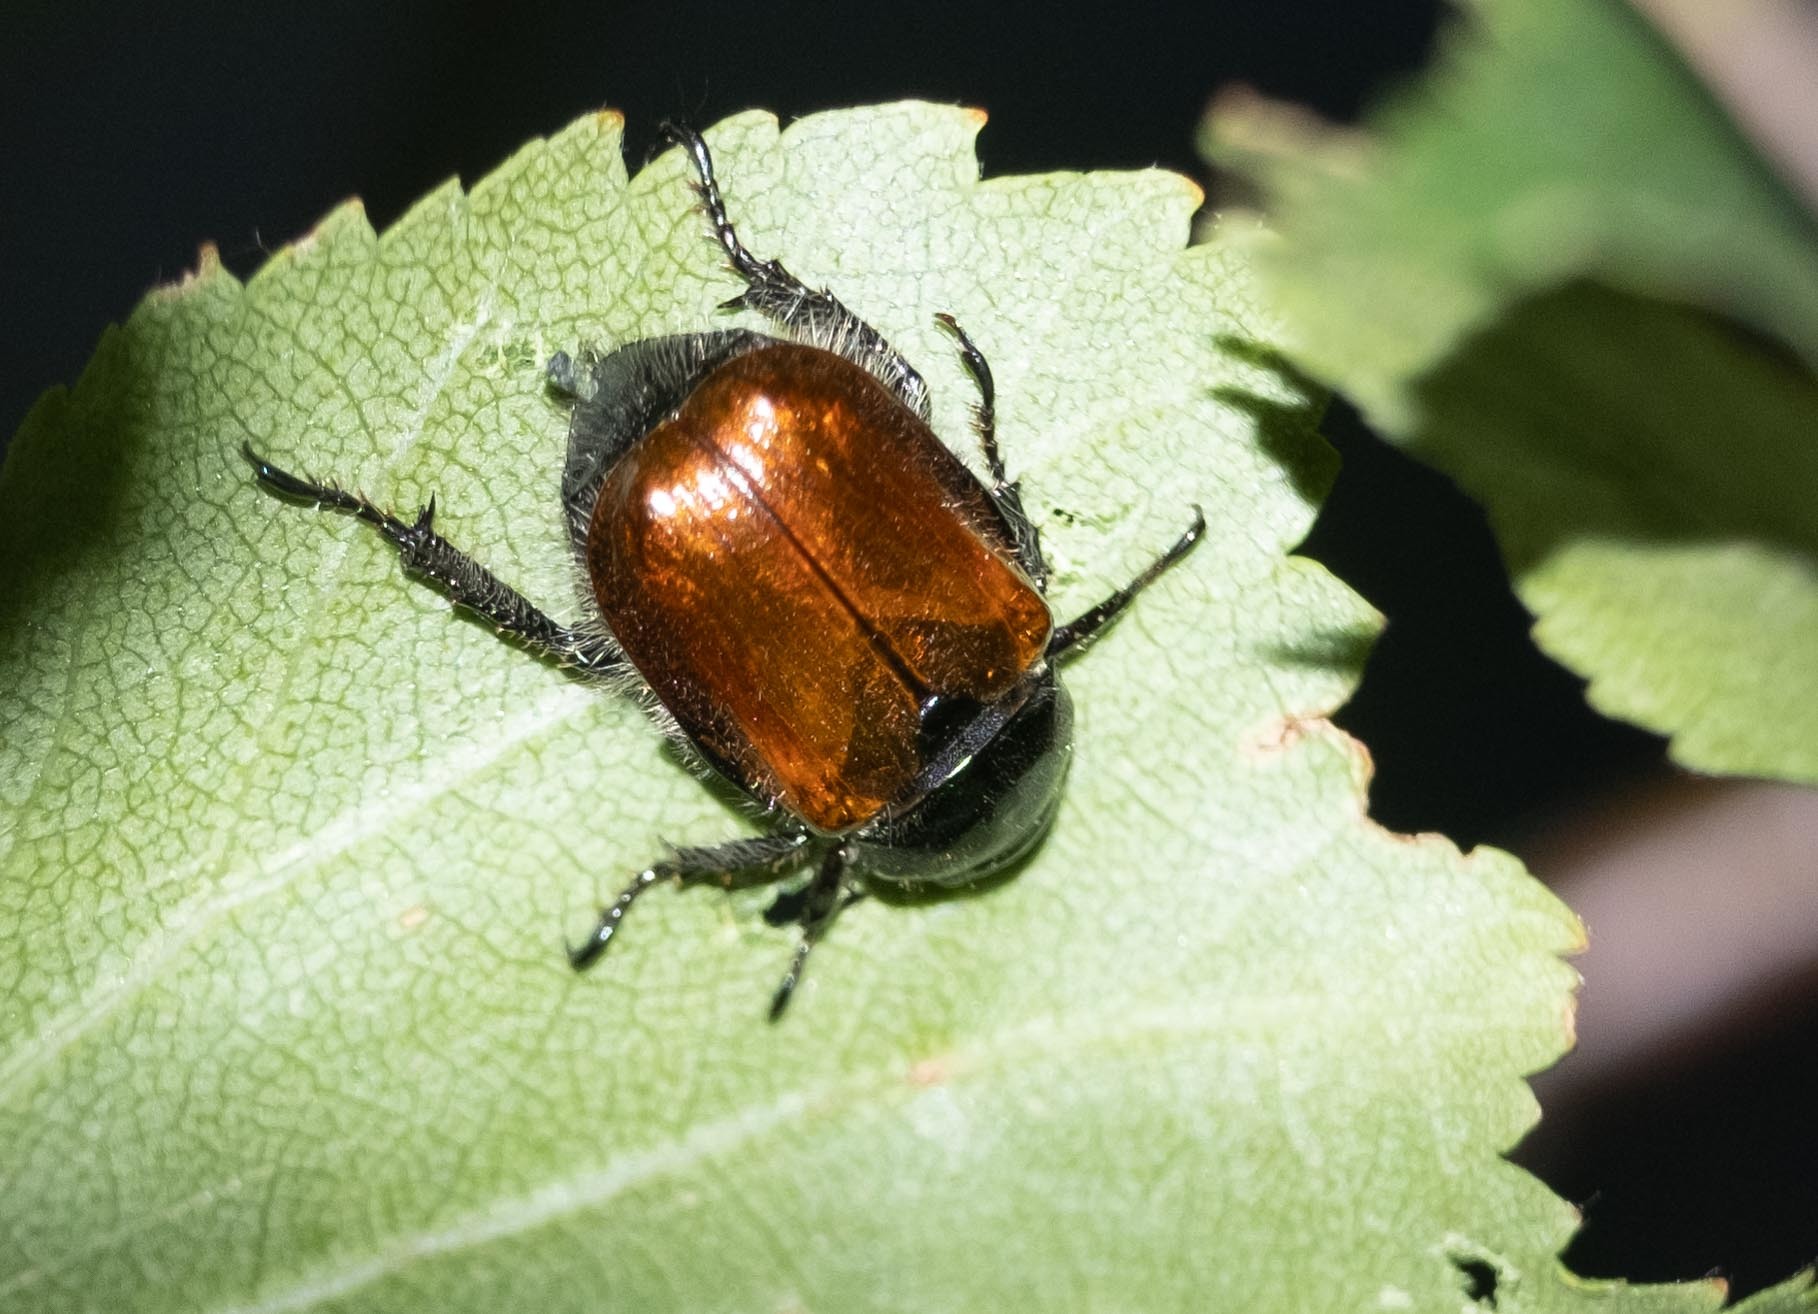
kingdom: Animalia
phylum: Arthropoda
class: Insecta
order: Coleoptera
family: Scarabaeidae
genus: Phyllopertha
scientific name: Phyllopertha horticola
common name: Garden chafer
